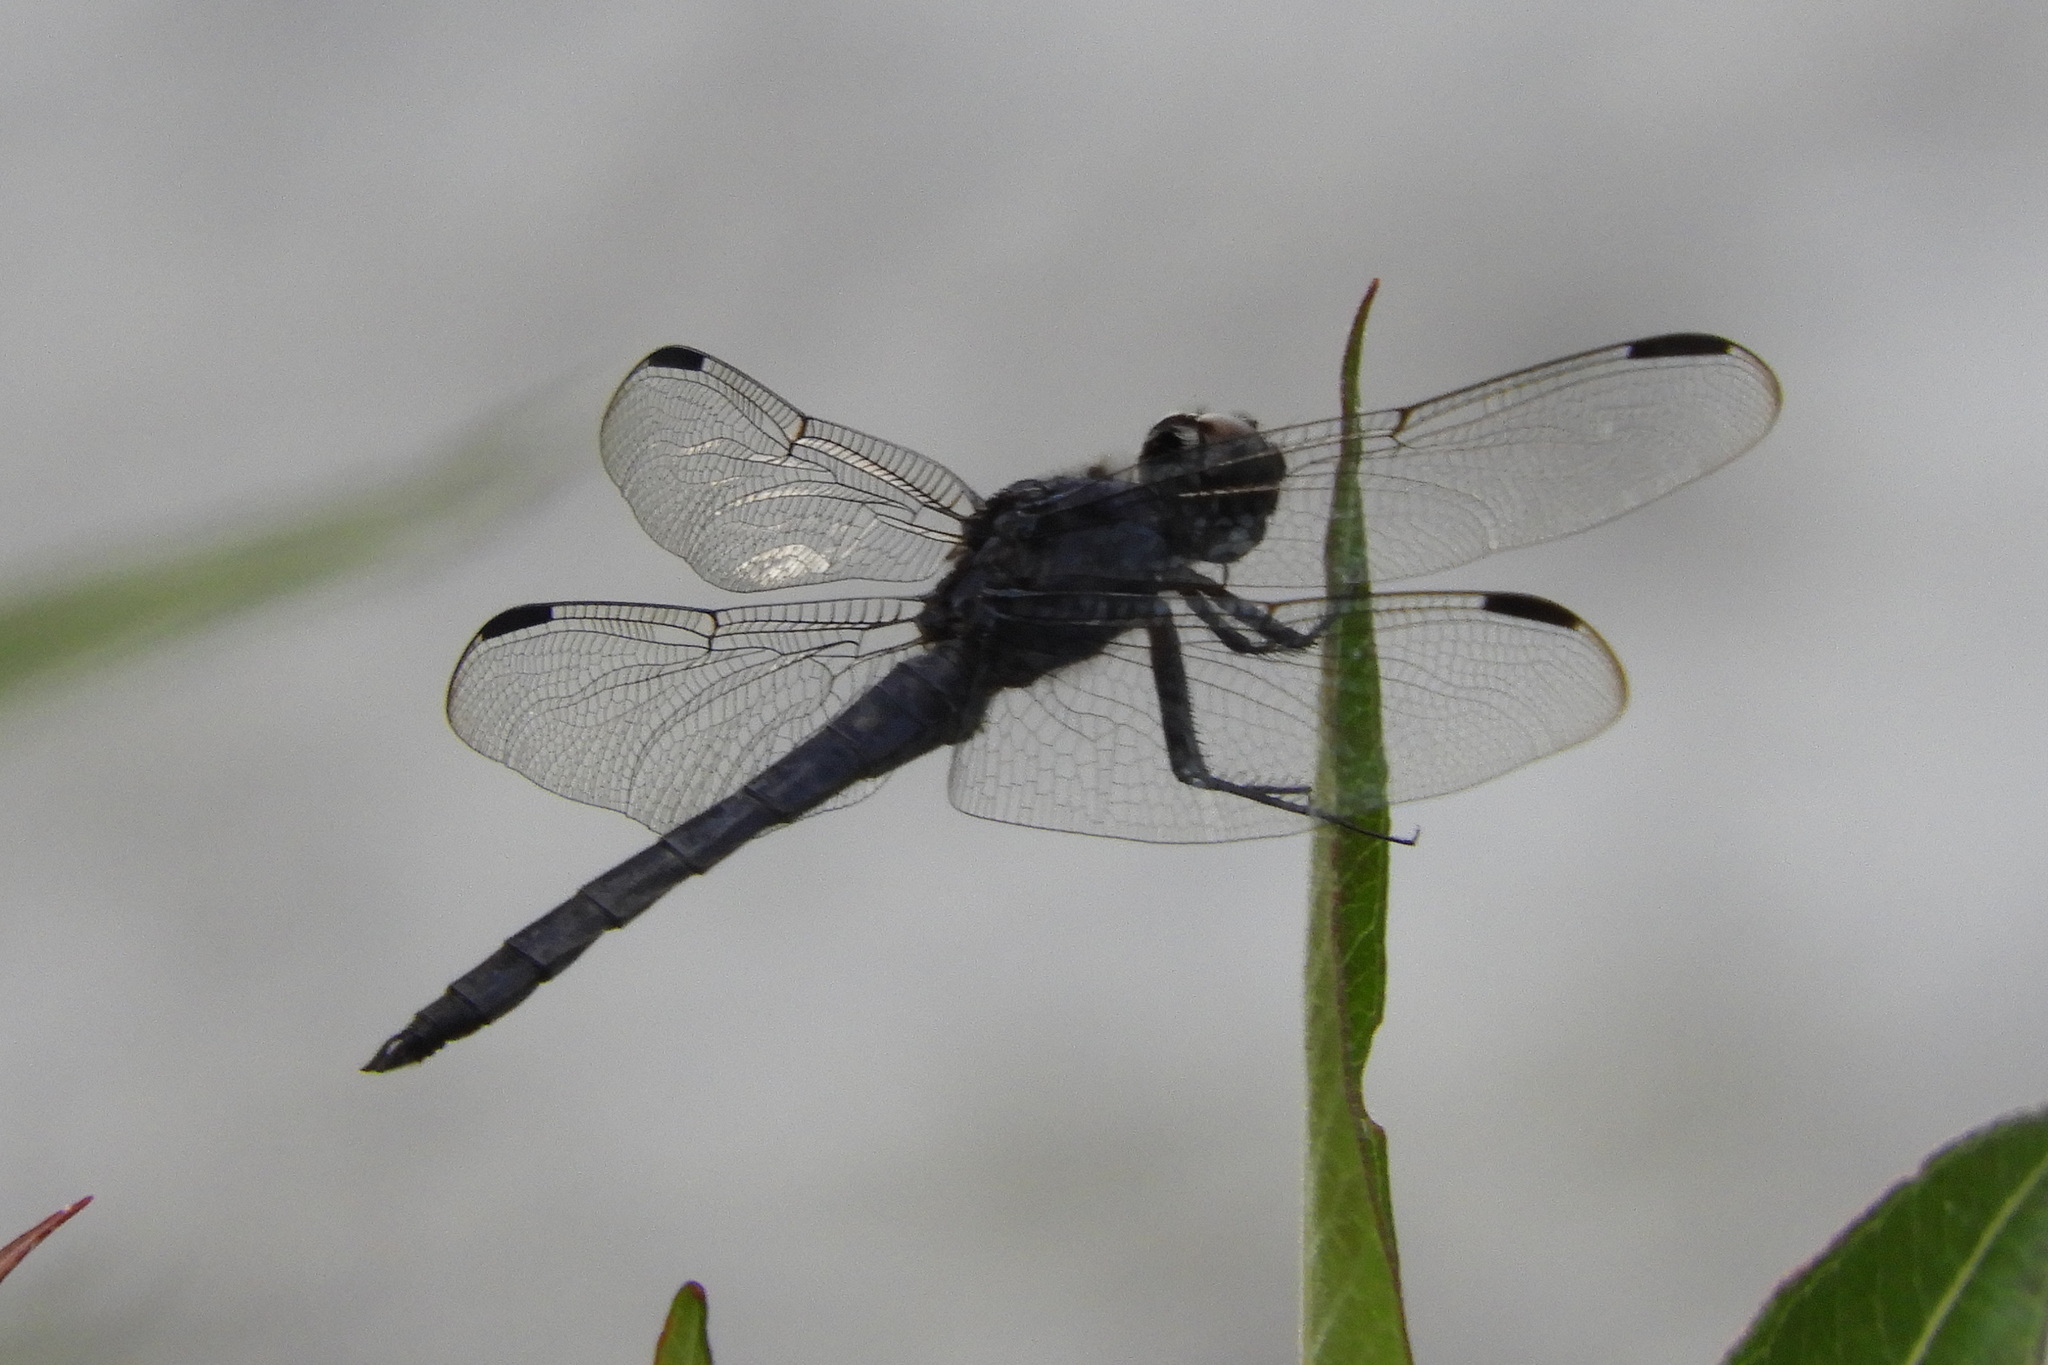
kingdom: Animalia
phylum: Arthropoda
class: Insecta
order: Odonata
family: Libellulidae
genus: Libellula
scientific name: Libellula incesta
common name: Slaty skimmer
